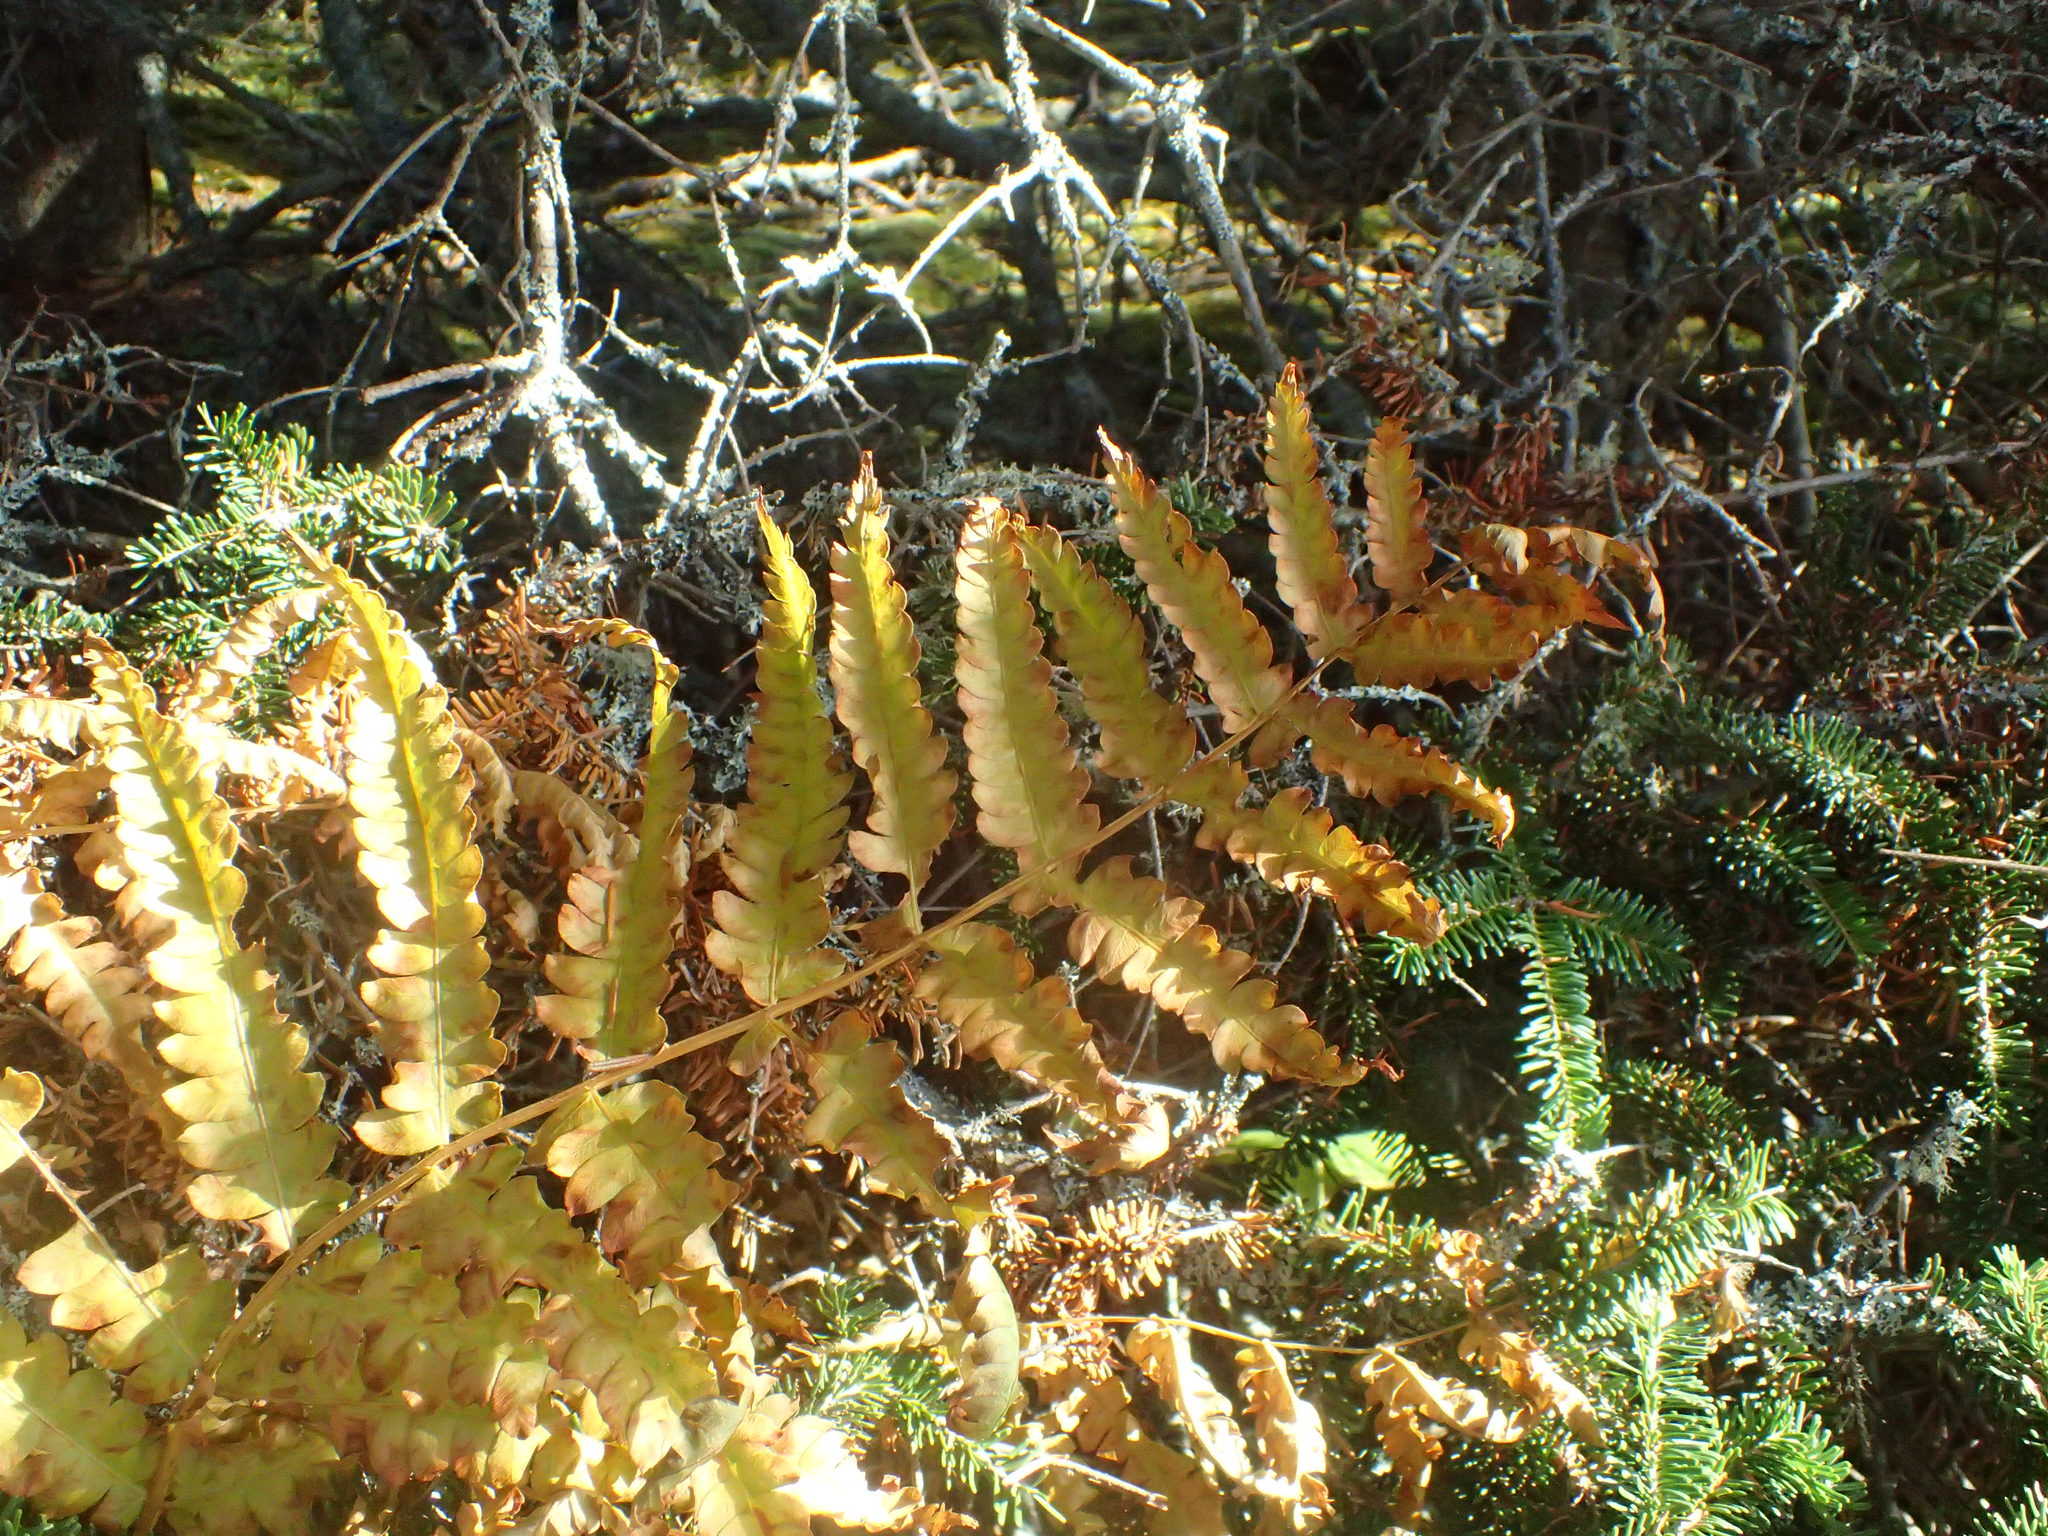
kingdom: Plantae
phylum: Tracheophyta
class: Polypodiopsida
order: Osmundales
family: Osmundaceae
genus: Osmundastrum
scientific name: Osmundastrum cinnamomeum
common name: Cinnamon fern
